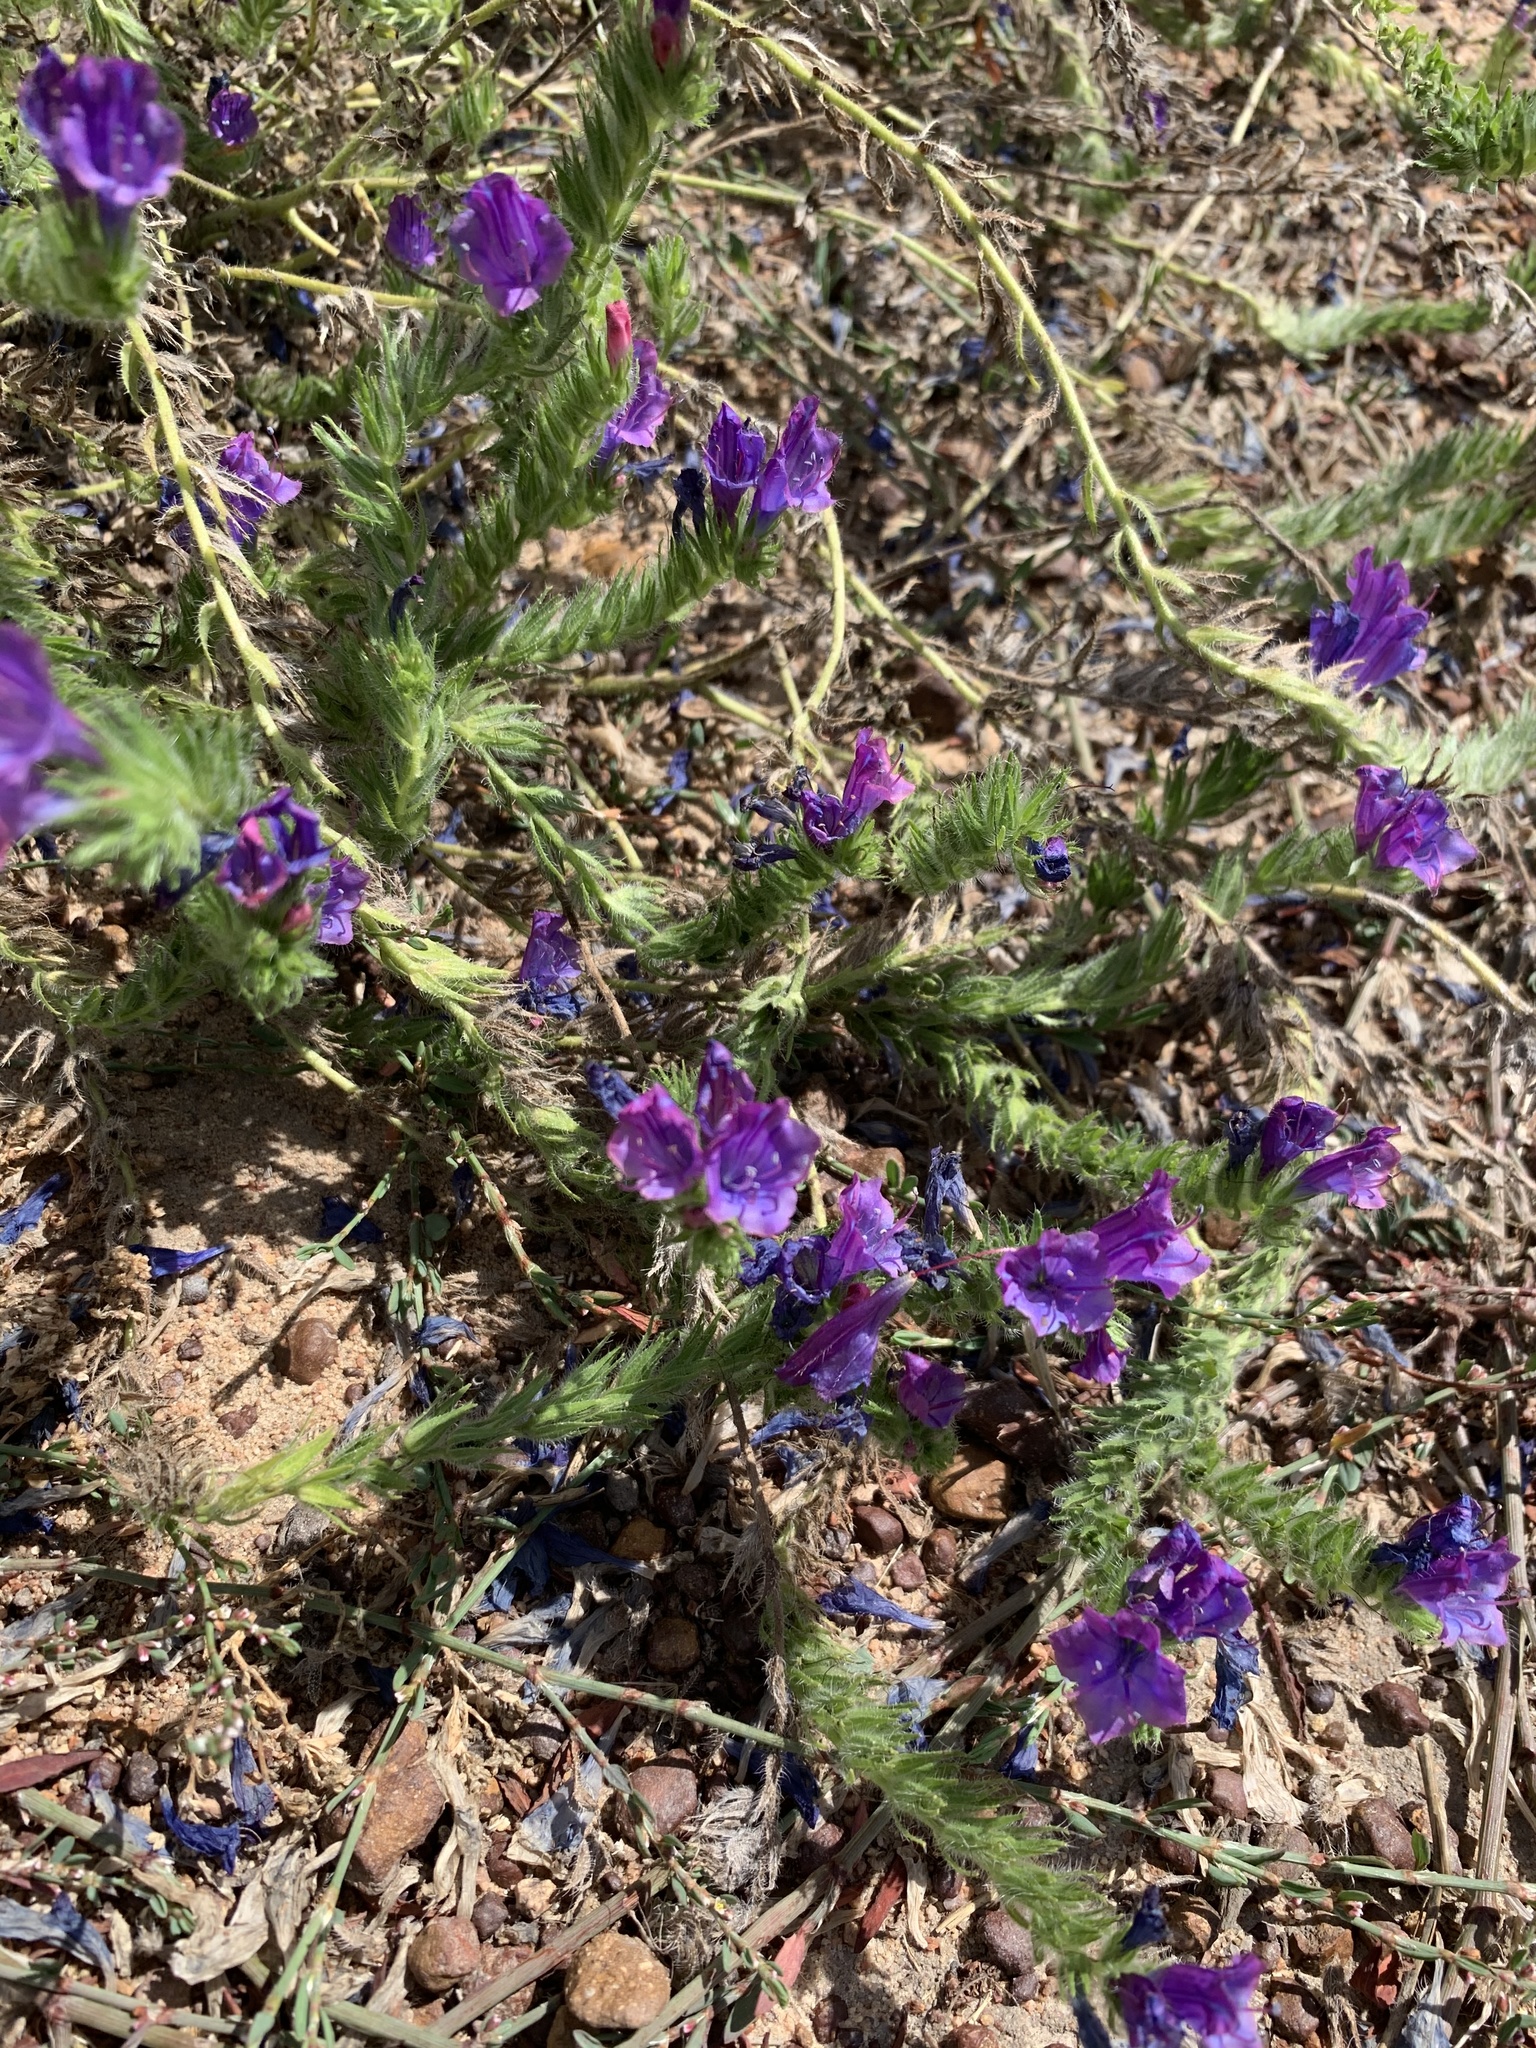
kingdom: Plantae
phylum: Tracheophyta
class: Magnoliopsida
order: Boraginales
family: Boraginaceae
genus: Echium
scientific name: Echium plantagineum
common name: Purple viper's-bugloss
